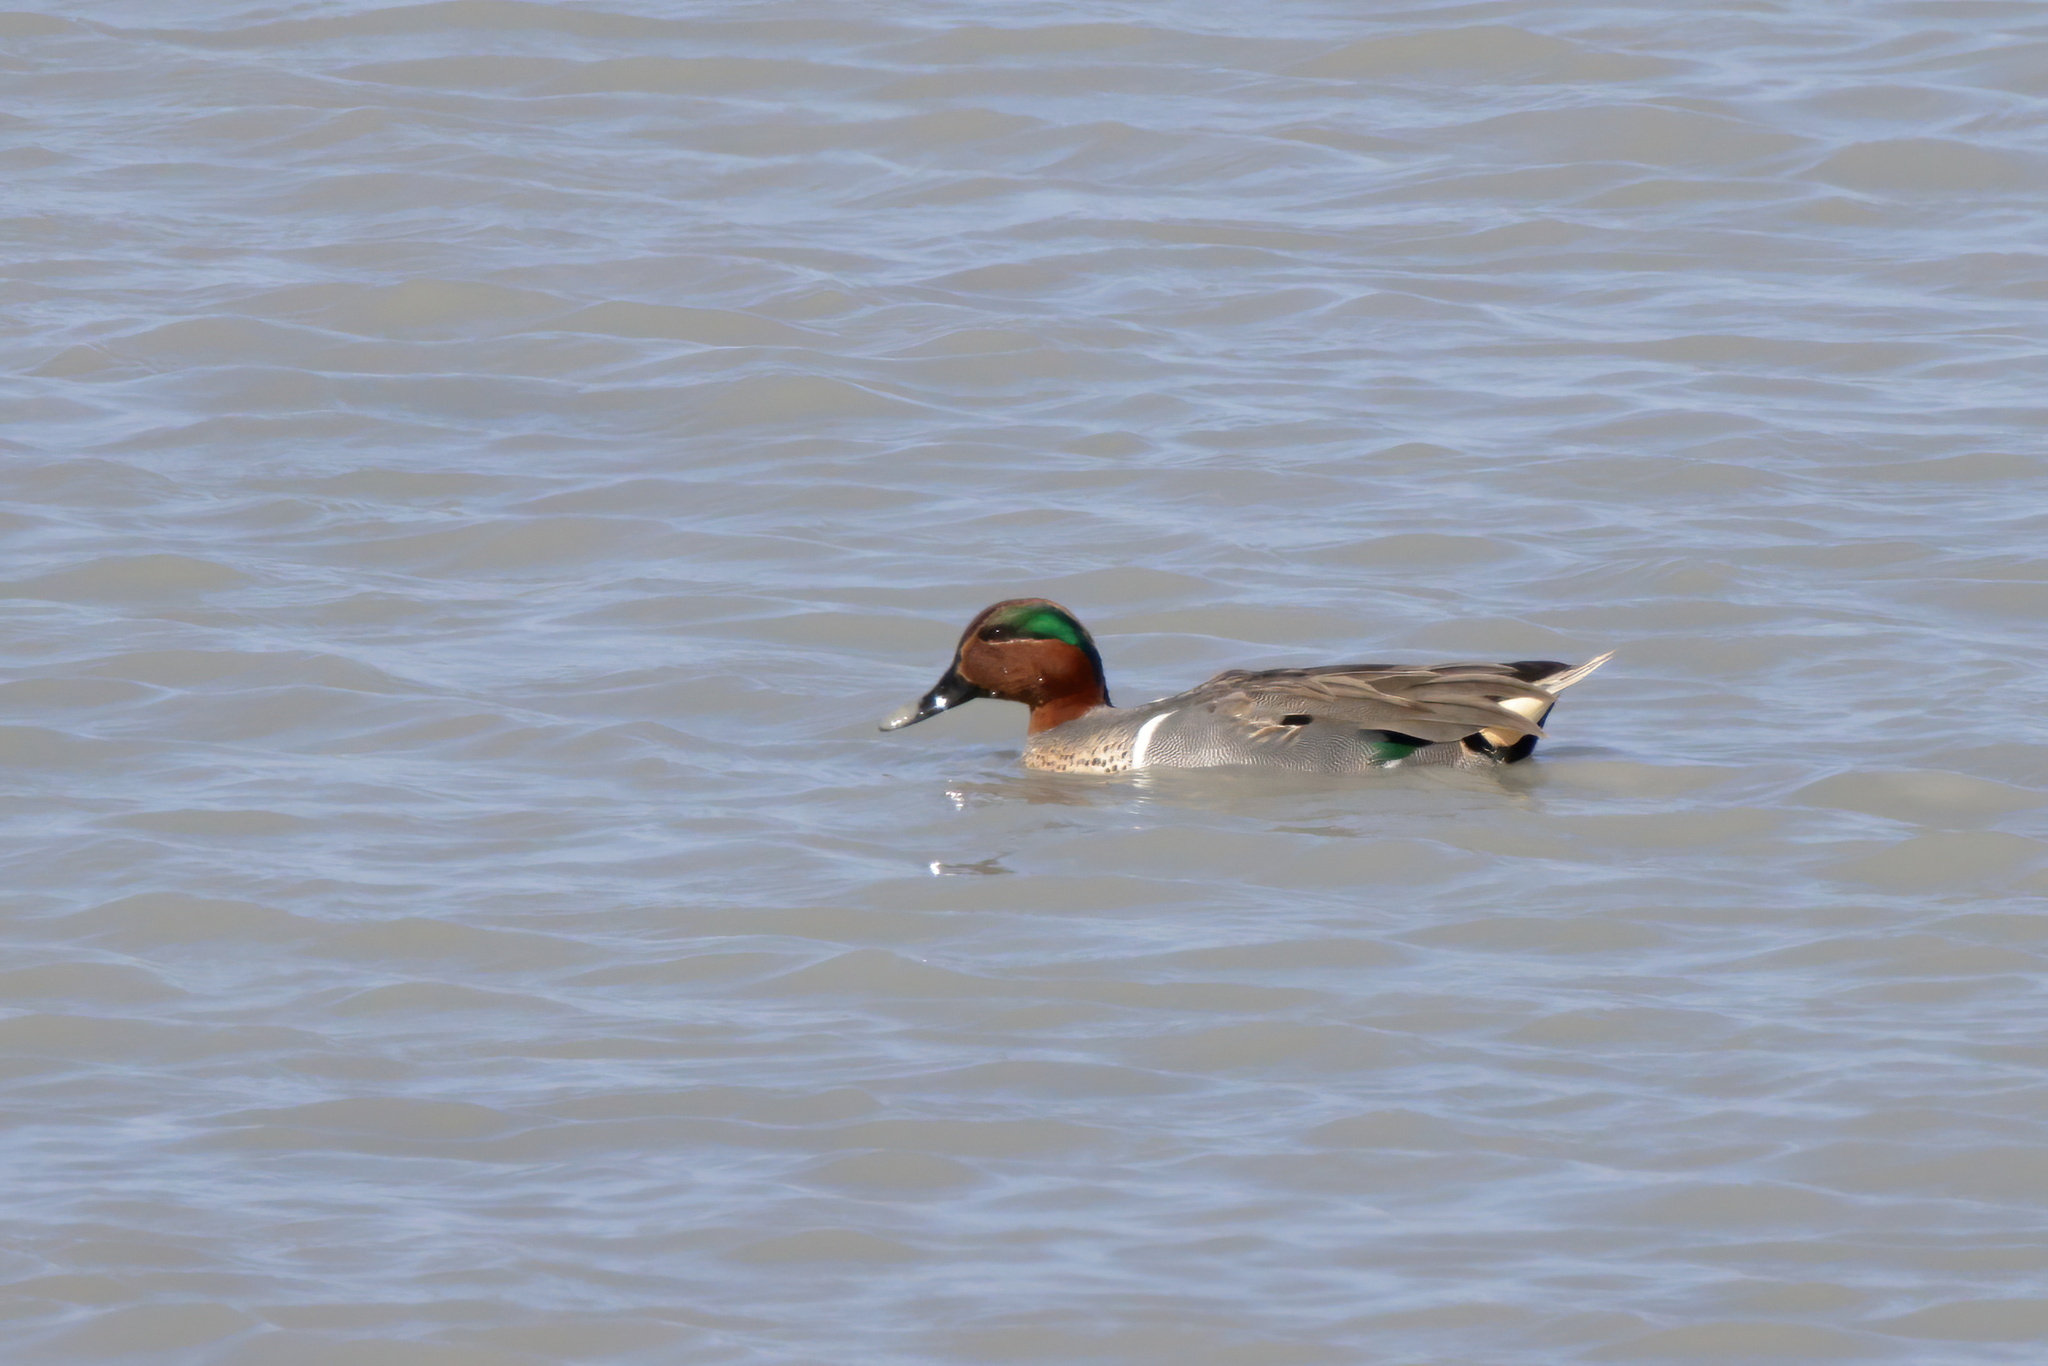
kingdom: Animalia
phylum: Chordata
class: Aves
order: Anseriformes
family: Anatidae
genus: Anas
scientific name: Anas crecca
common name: Eurasian teal
